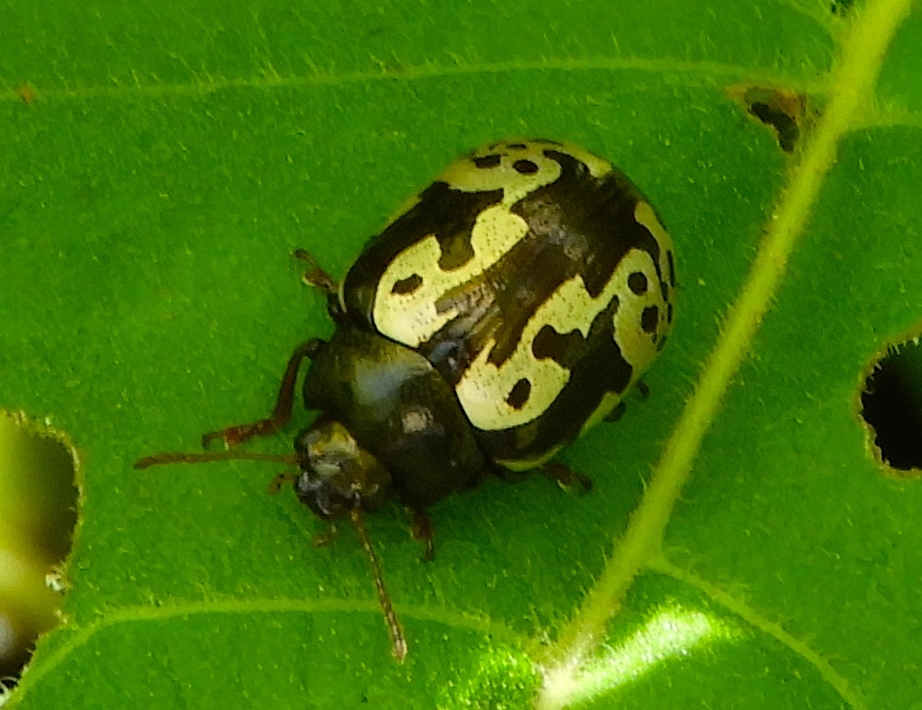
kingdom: Animalia
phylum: Arthropoda
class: Insecta
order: Coleoptera
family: Chrysomelidae
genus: Calligrapha
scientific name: Calligrapha intermedia
